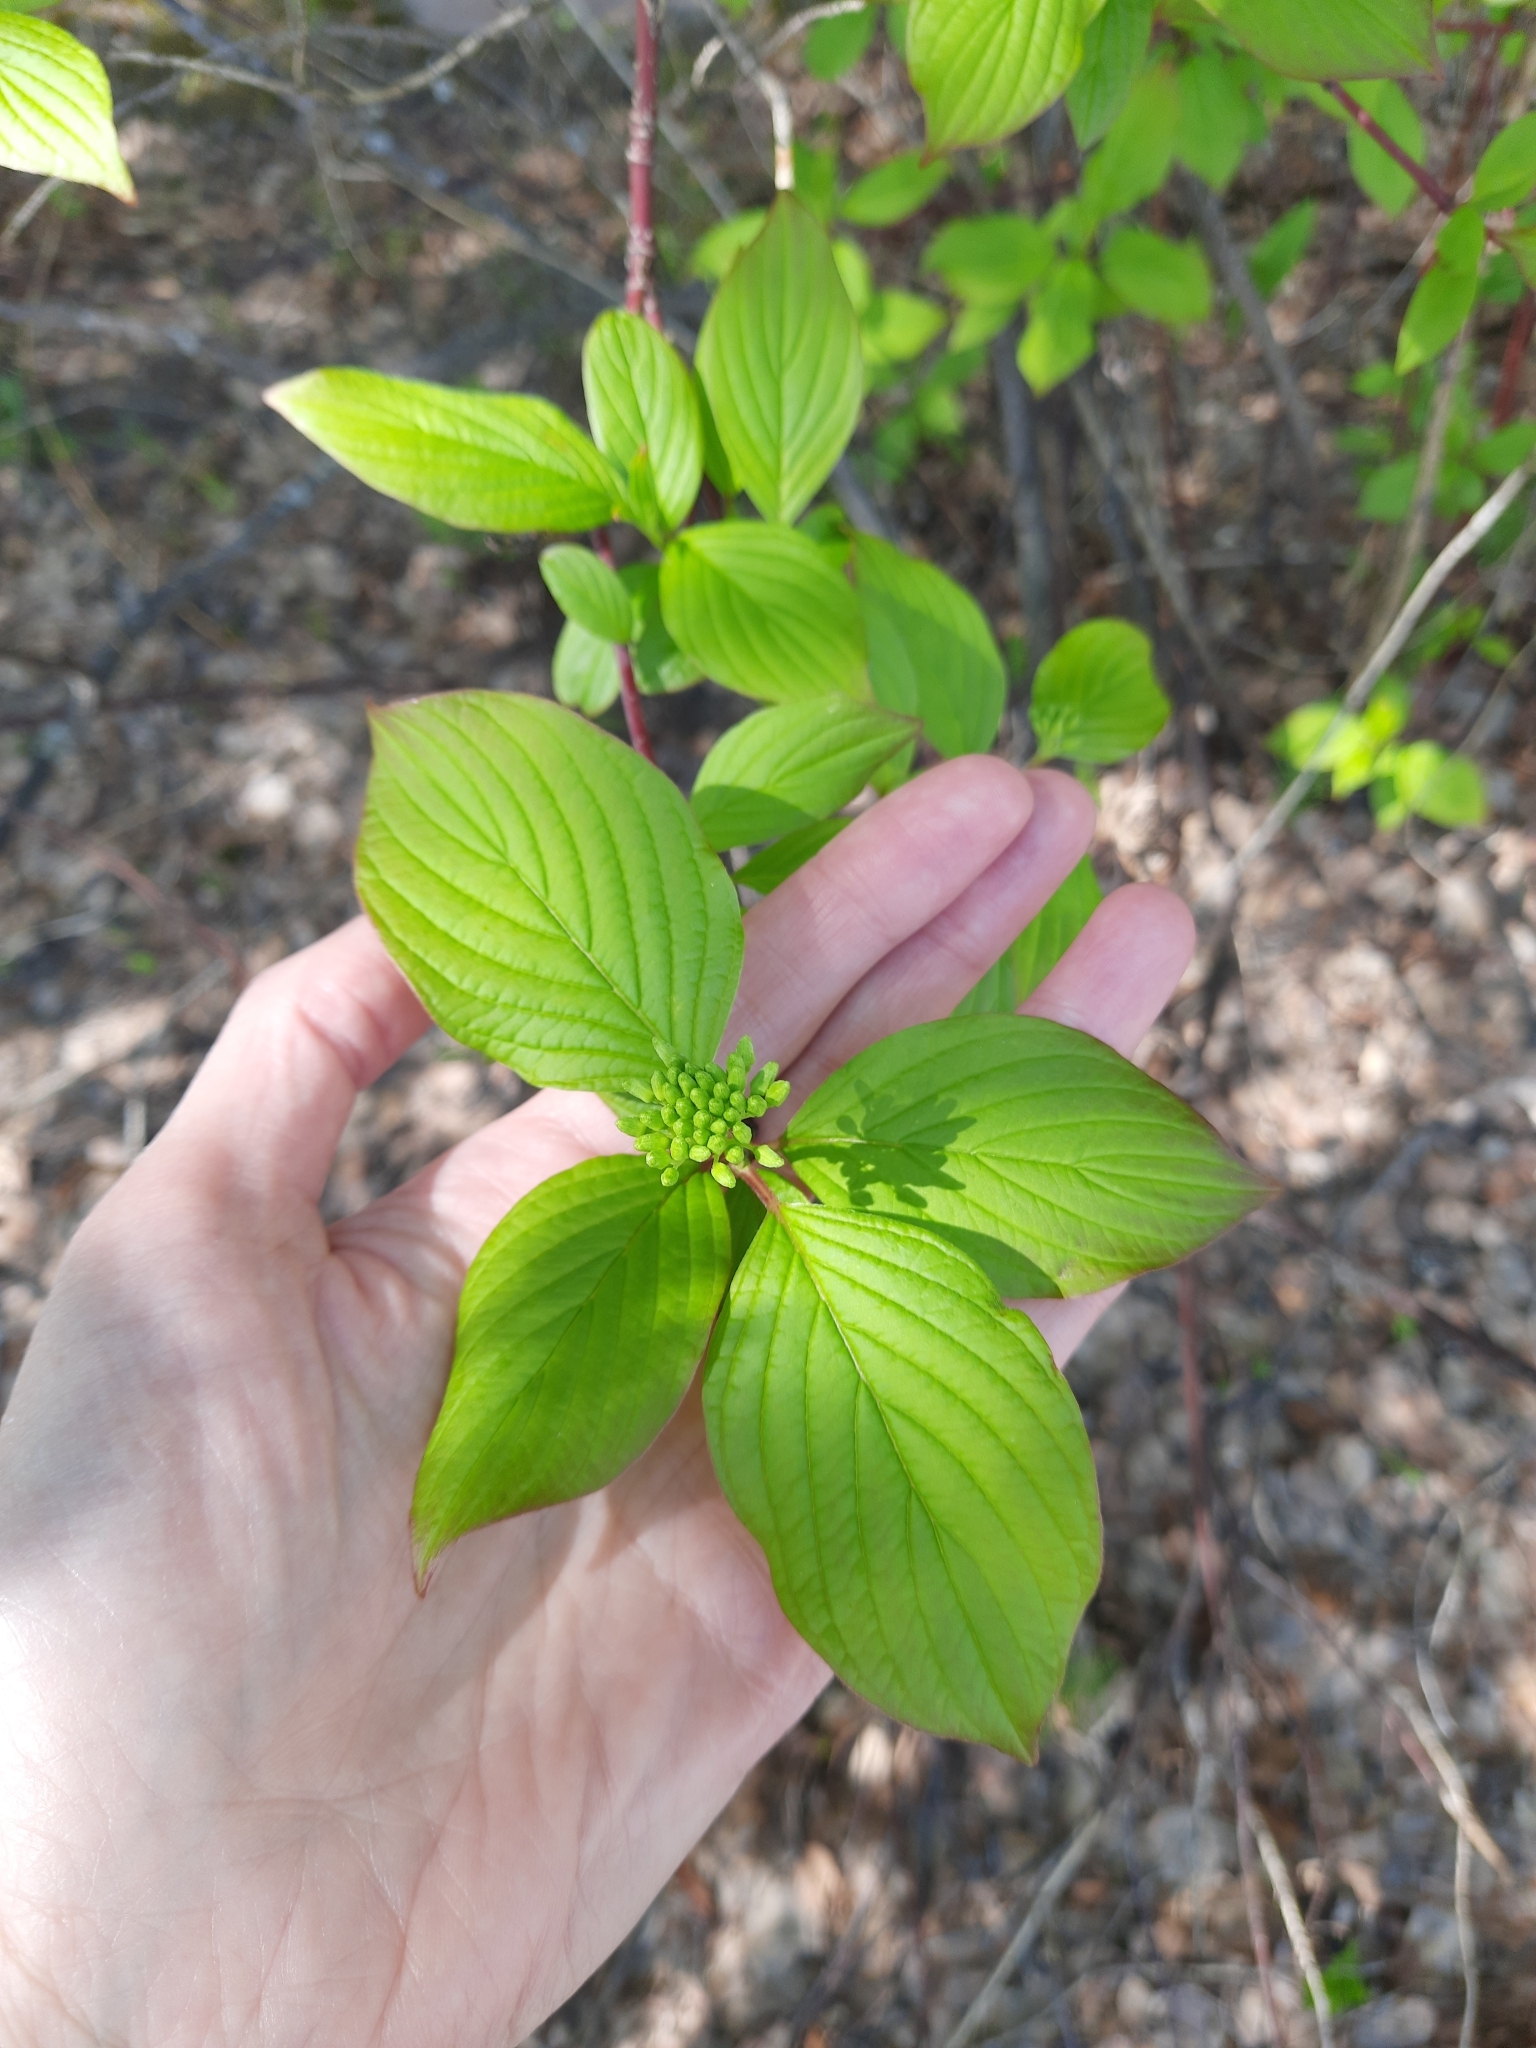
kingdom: Plantae
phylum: Tracheophyta
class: Magnoliopsida
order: Cornales
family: Cornaceae
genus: Cornus
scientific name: Cornus alba
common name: White dogwood
